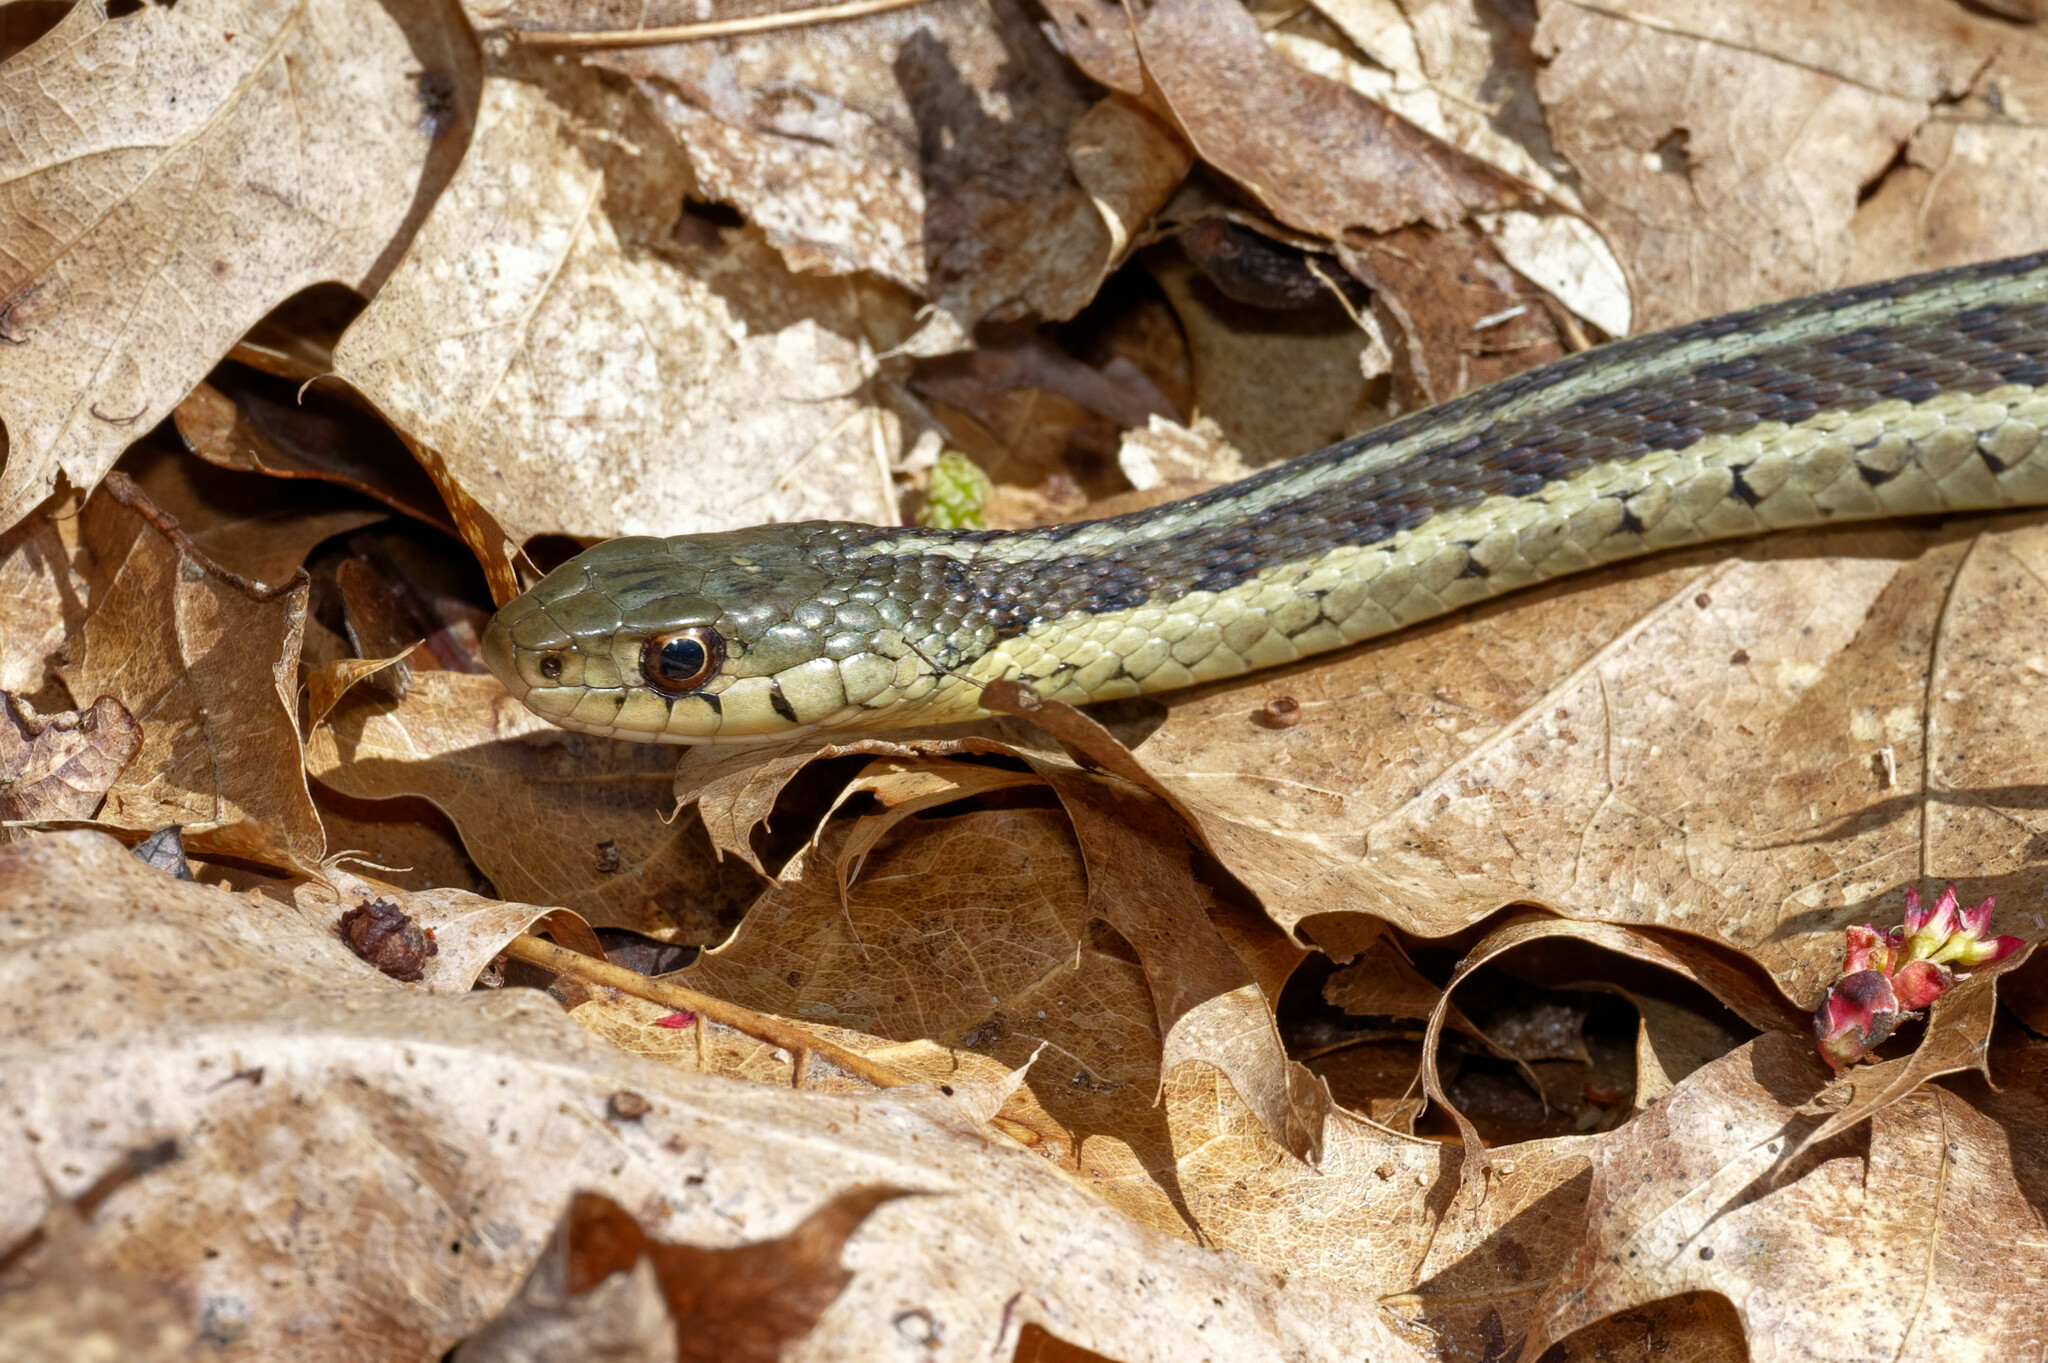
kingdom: Animalia
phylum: Chordata
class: Squamata
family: Colubridae
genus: Thamnophis
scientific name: Thamnophis sirtalis
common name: Common garter snake
